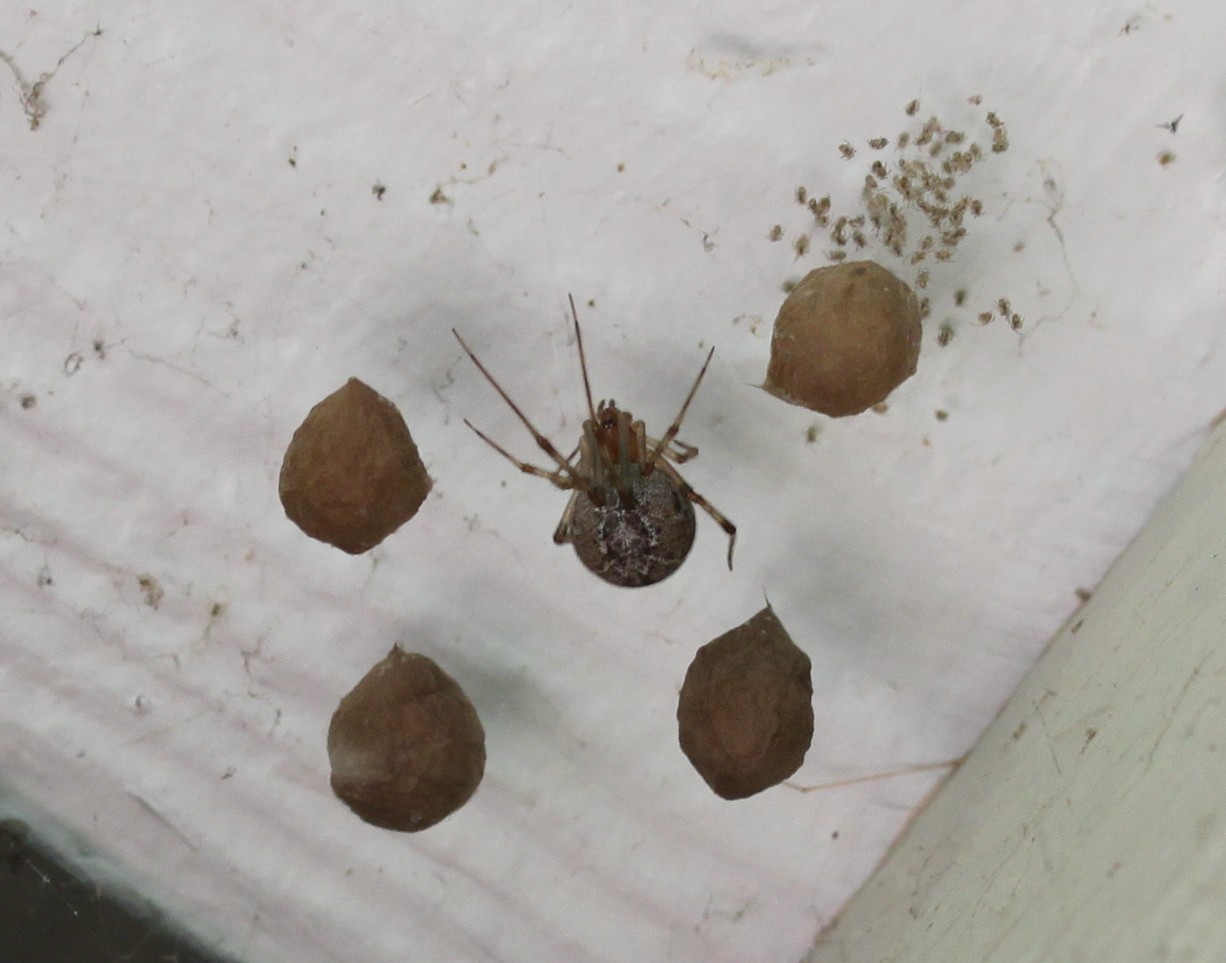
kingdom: Animalia
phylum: Arthropoda
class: Arachnida
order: Araneae
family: Theridiidae
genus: Parasteatoda
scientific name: Parasteatoda tepidariorum
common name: Common house spider
